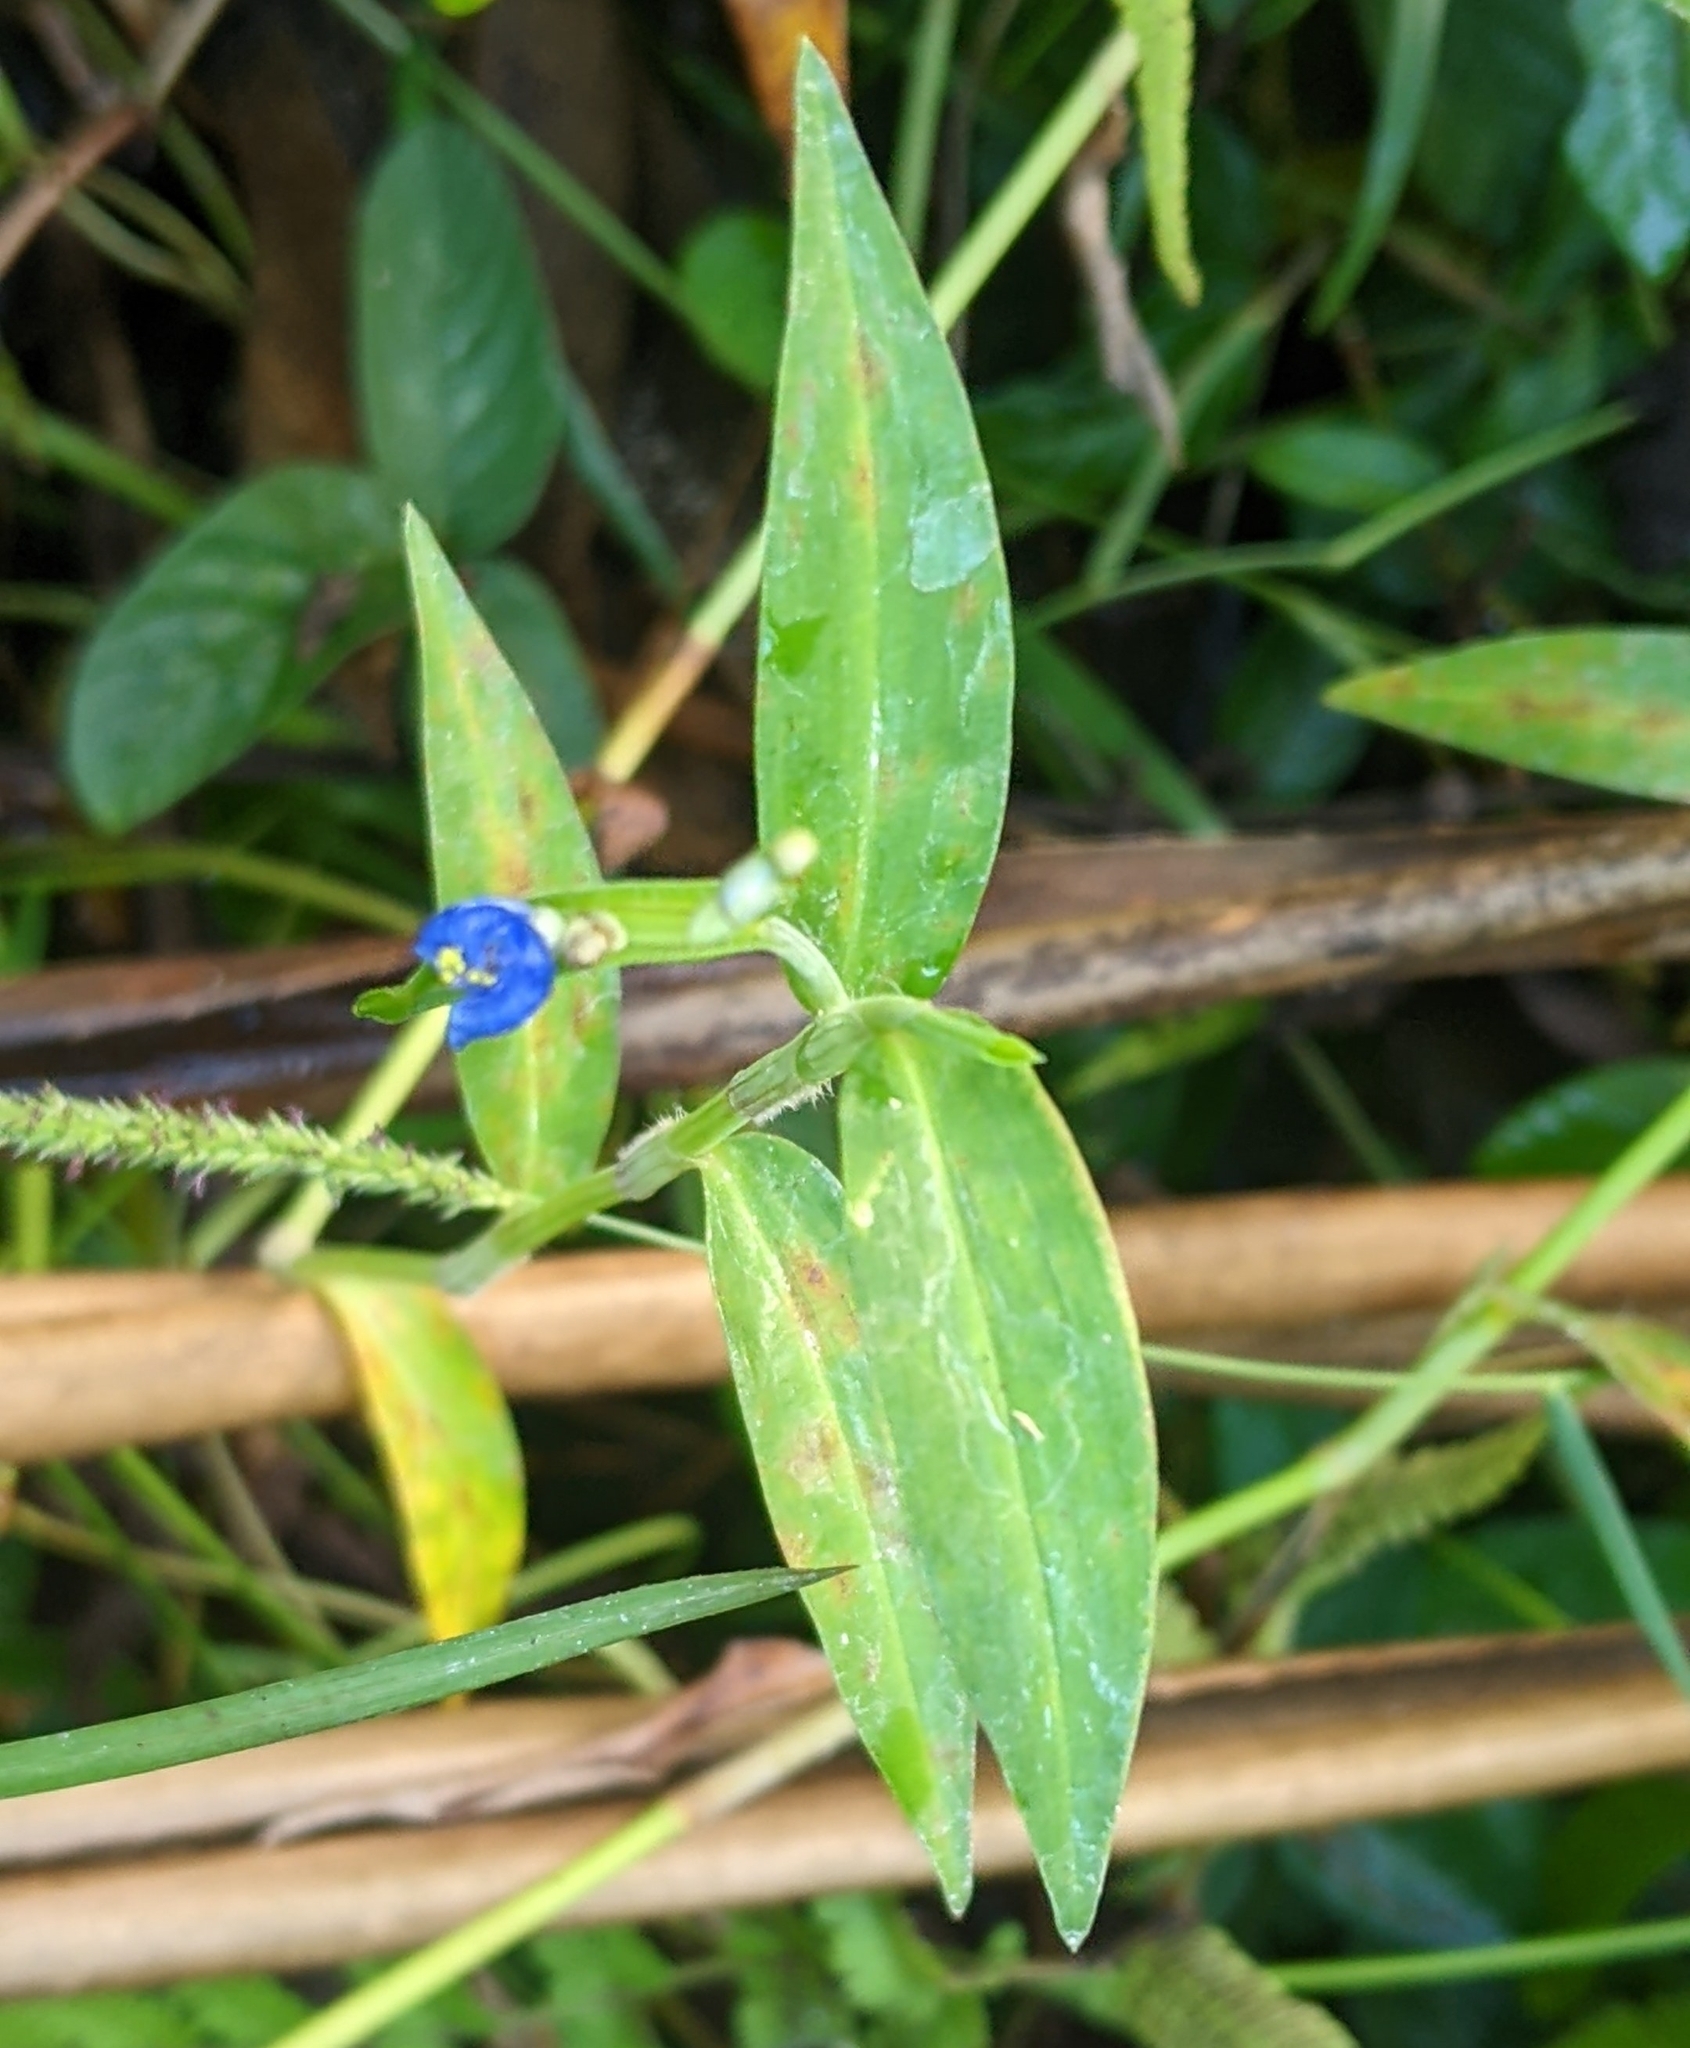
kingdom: Plantae
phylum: Tracheophyta
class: Liliopsida
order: Commelinales
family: Commelinaceae
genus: Commelina
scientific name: Commelina diffusa
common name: Climbing dayflower
